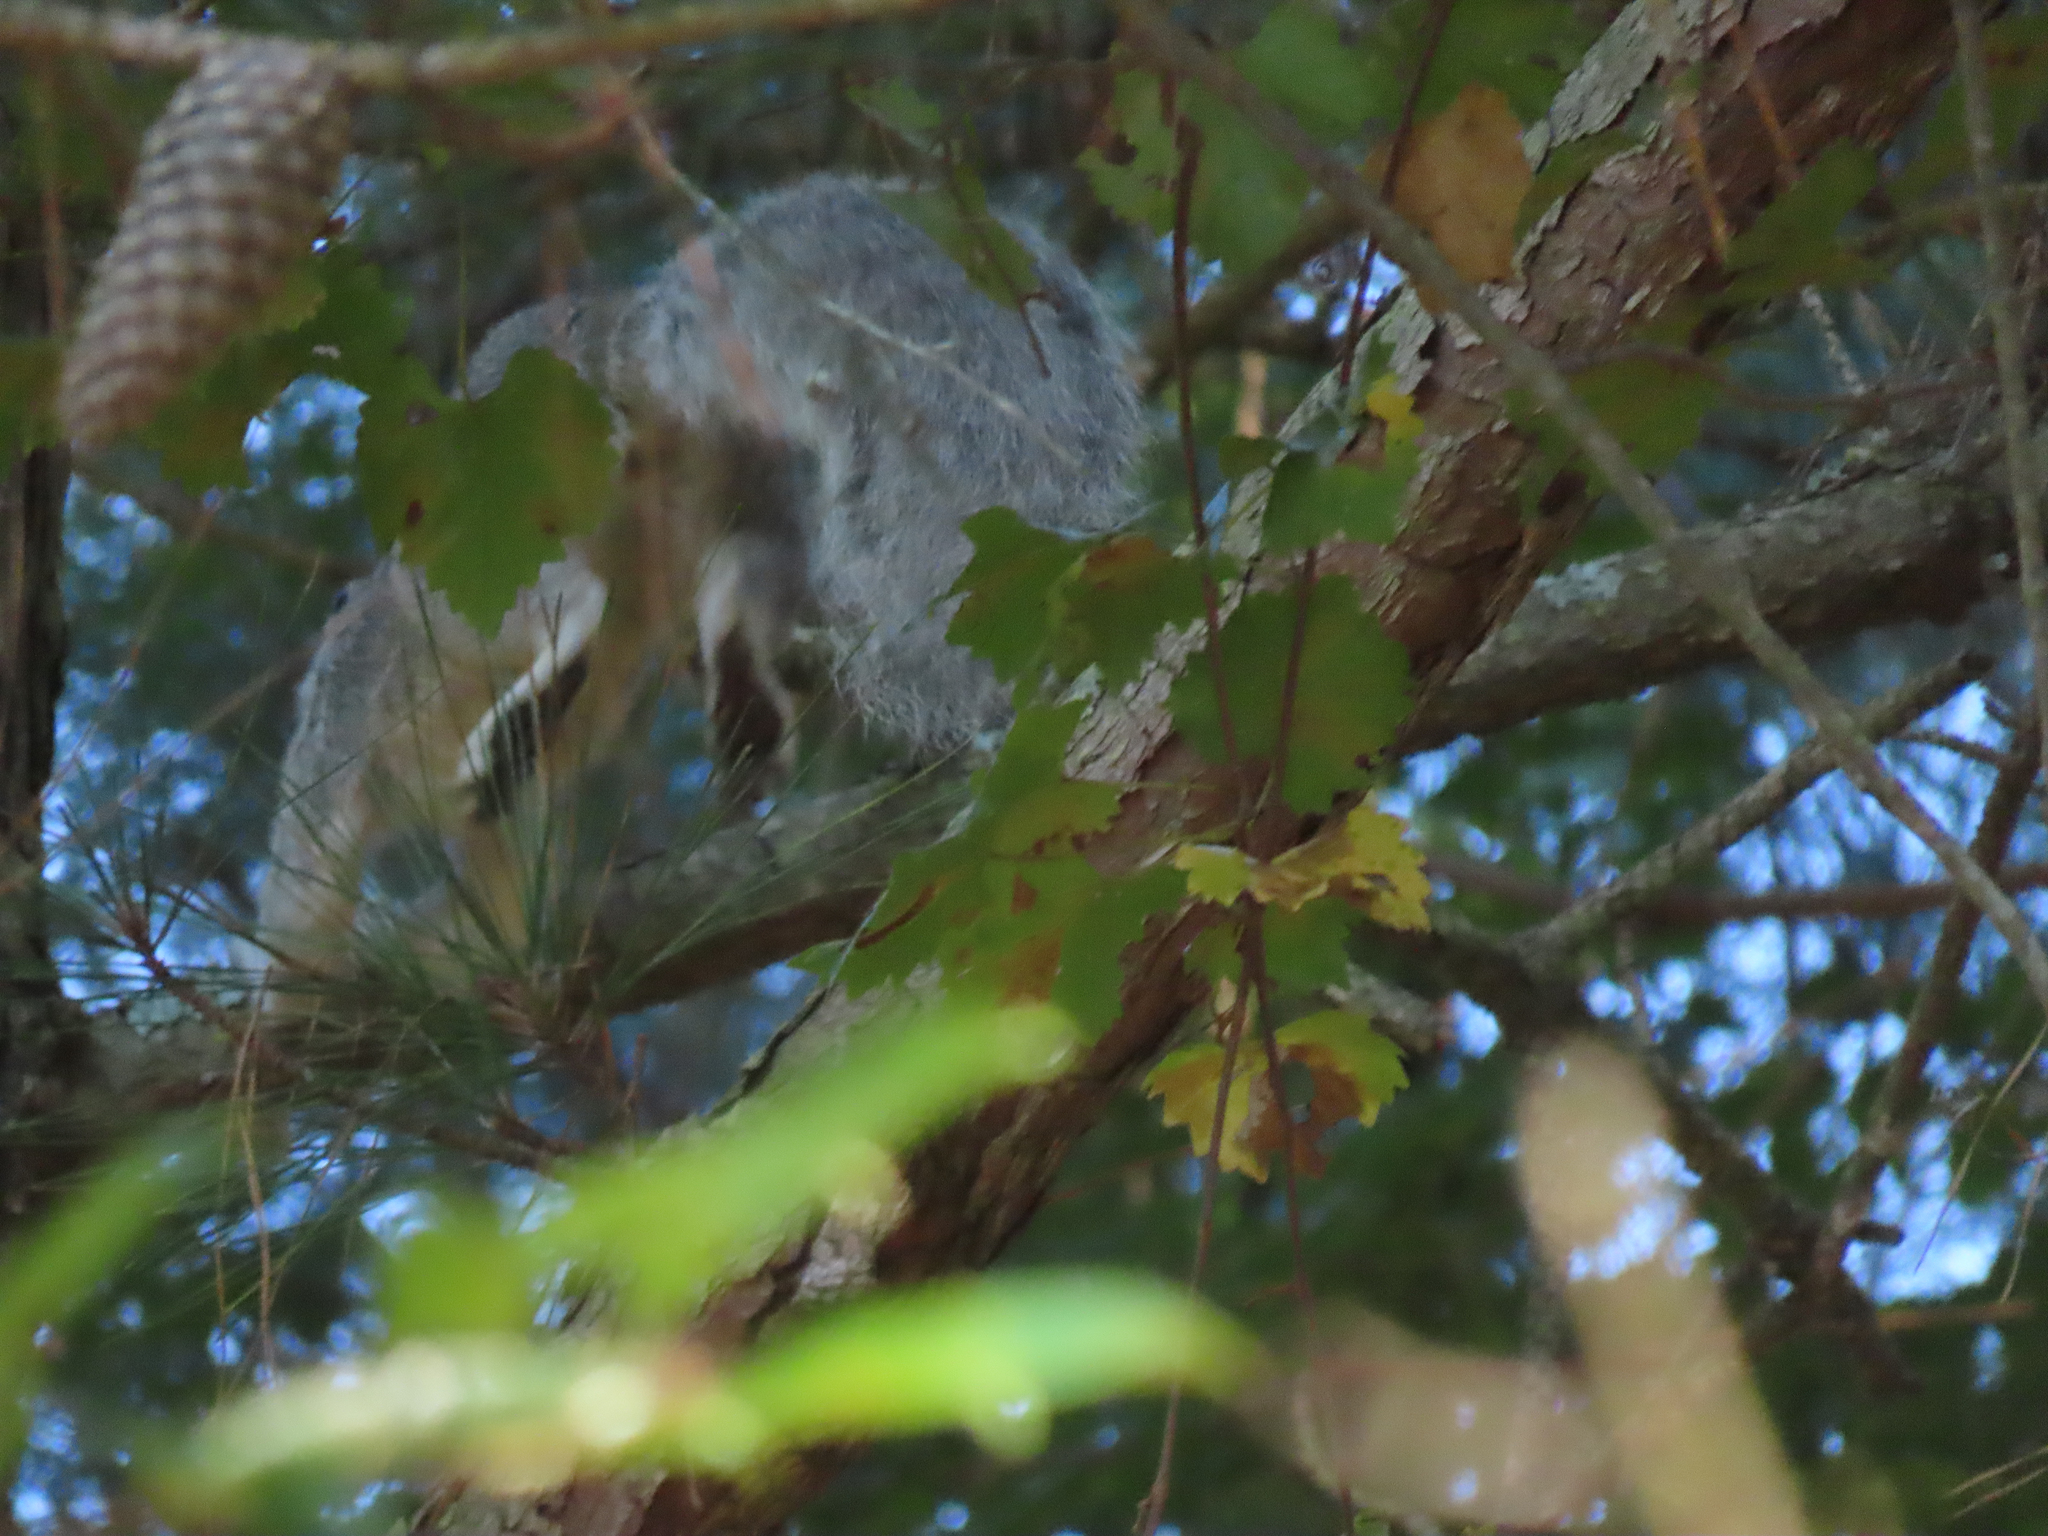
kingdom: Animalia
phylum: Chordata
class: Mammalia
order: Rodentia
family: Sciuridae
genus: Sciurus
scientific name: Sciurus niger
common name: Fox squirrel
